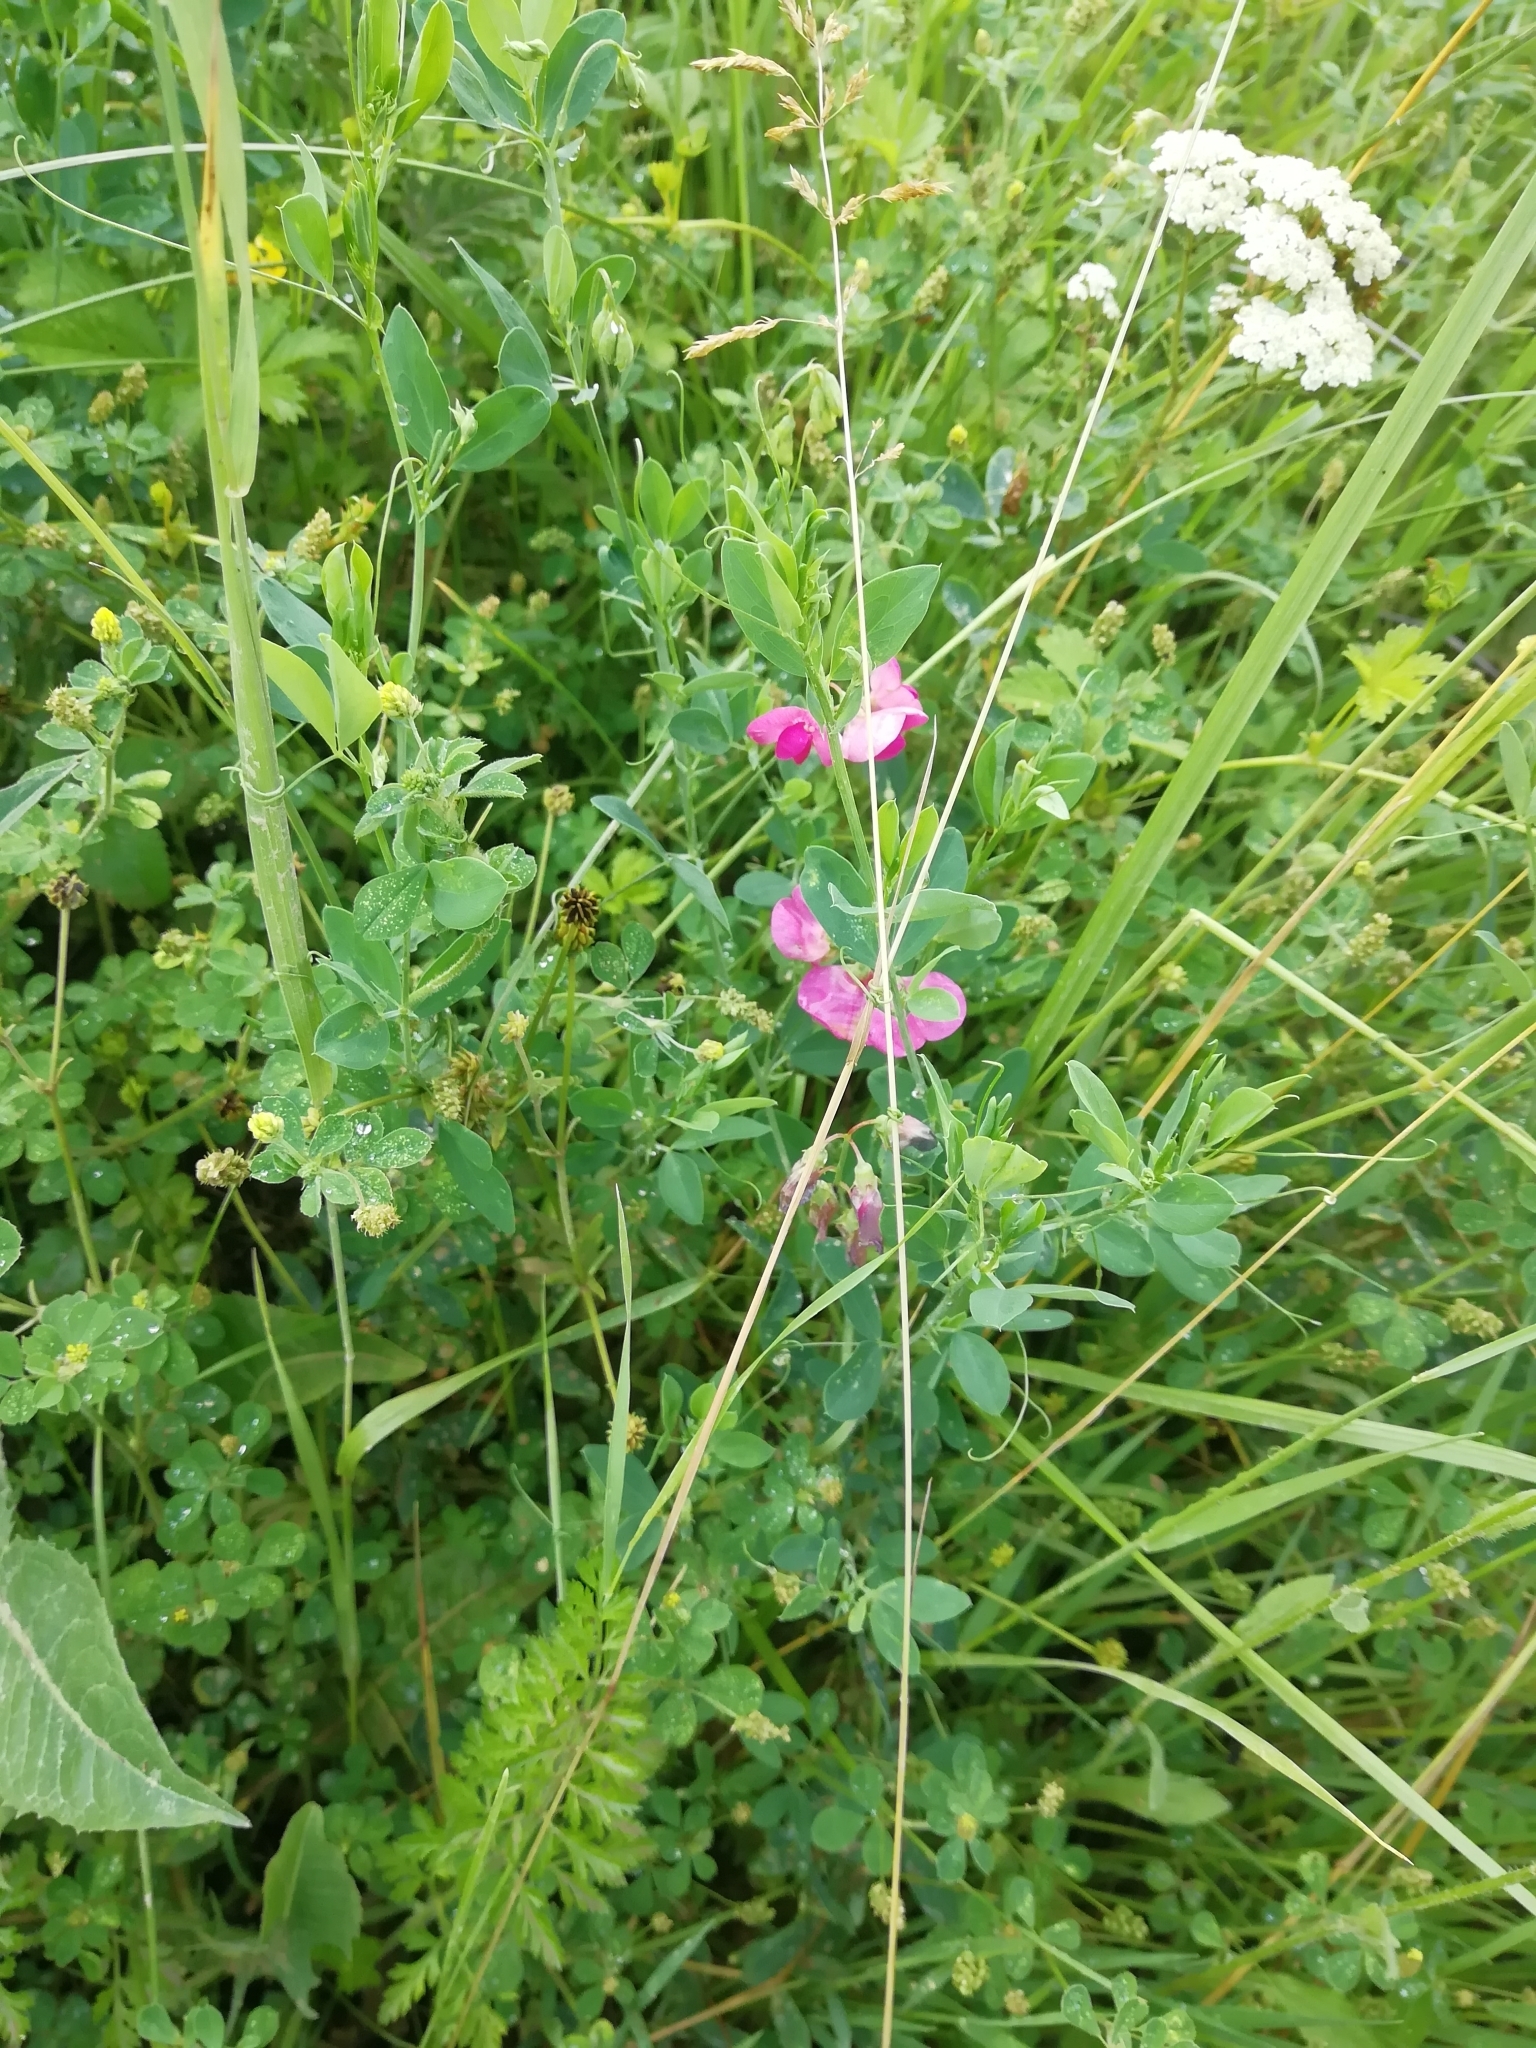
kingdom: Plantae
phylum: Tracheophyta
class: Magnoliopsida
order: Fabales
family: Fabaceae
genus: Lathyrus
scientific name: Lathyrus tuberosus
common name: Tuberous pea
